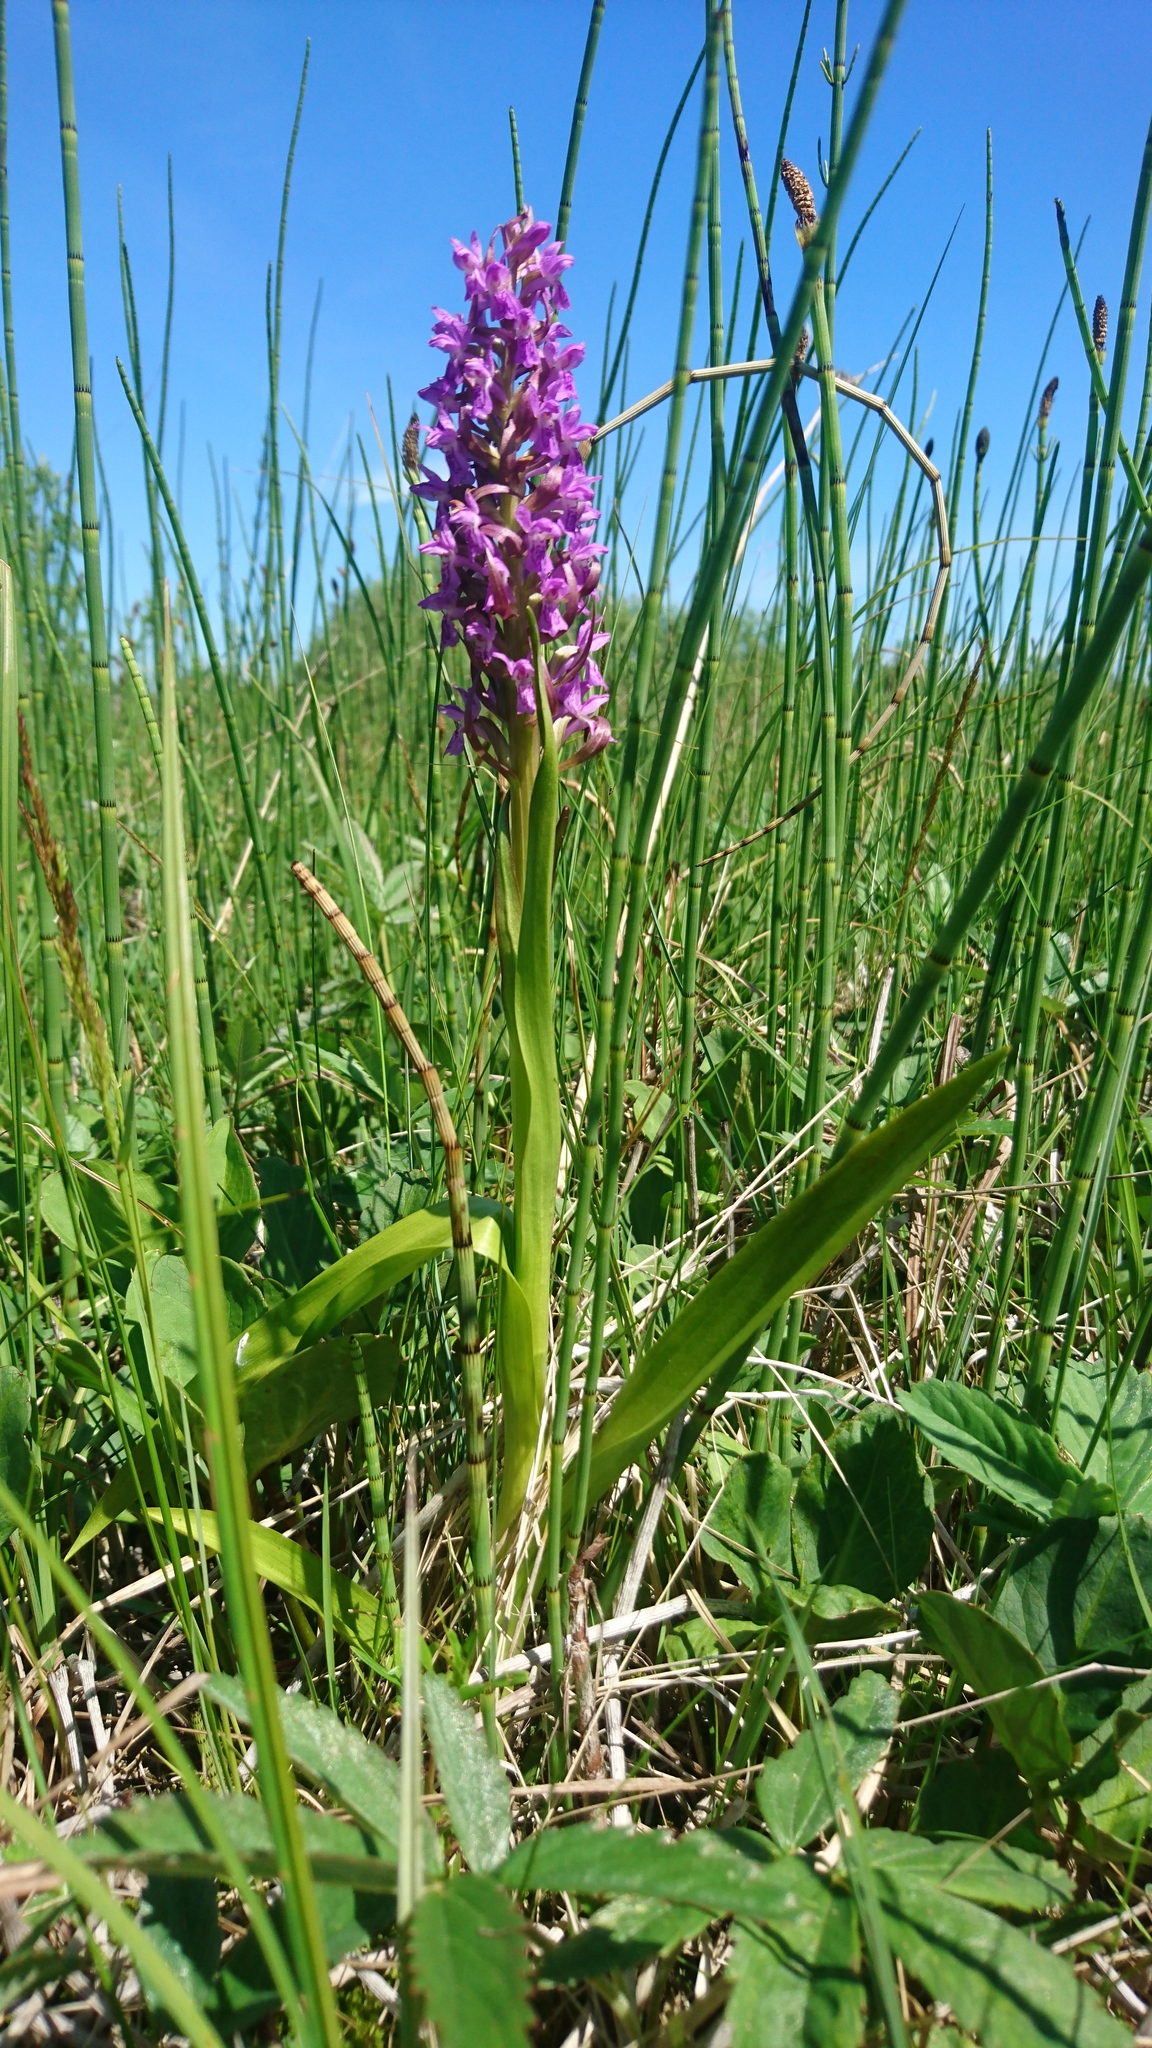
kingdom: Plantae
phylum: Tracheophyta
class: Liliopsida
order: Asparagales
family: Orchidaceae
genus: Dactylorhiza
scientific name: Dactylorhiza incarnata
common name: Early marsh-orchid
